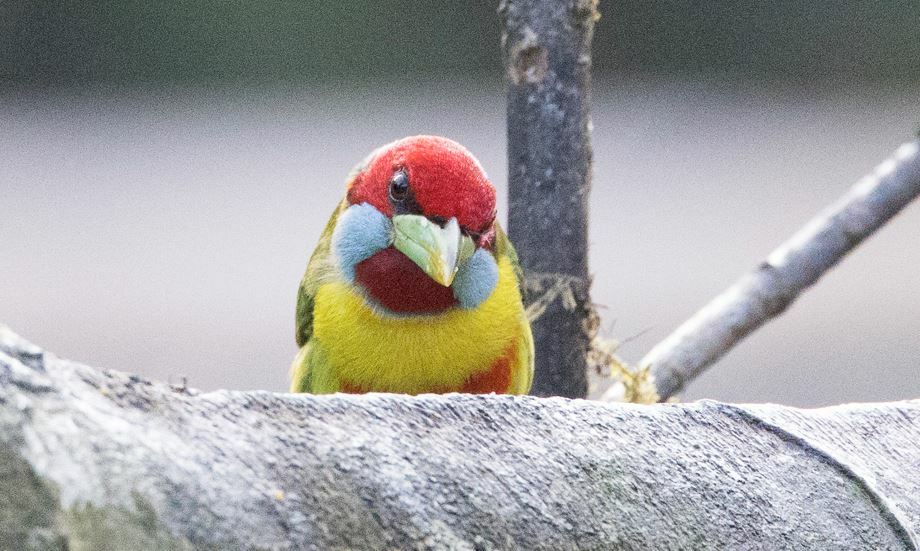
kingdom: Animalia
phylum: Chordata
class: Aves
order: Piciformes
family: Capitonidae
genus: Eubucco
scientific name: Eubucco versicolor
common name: Versicolored barbet
